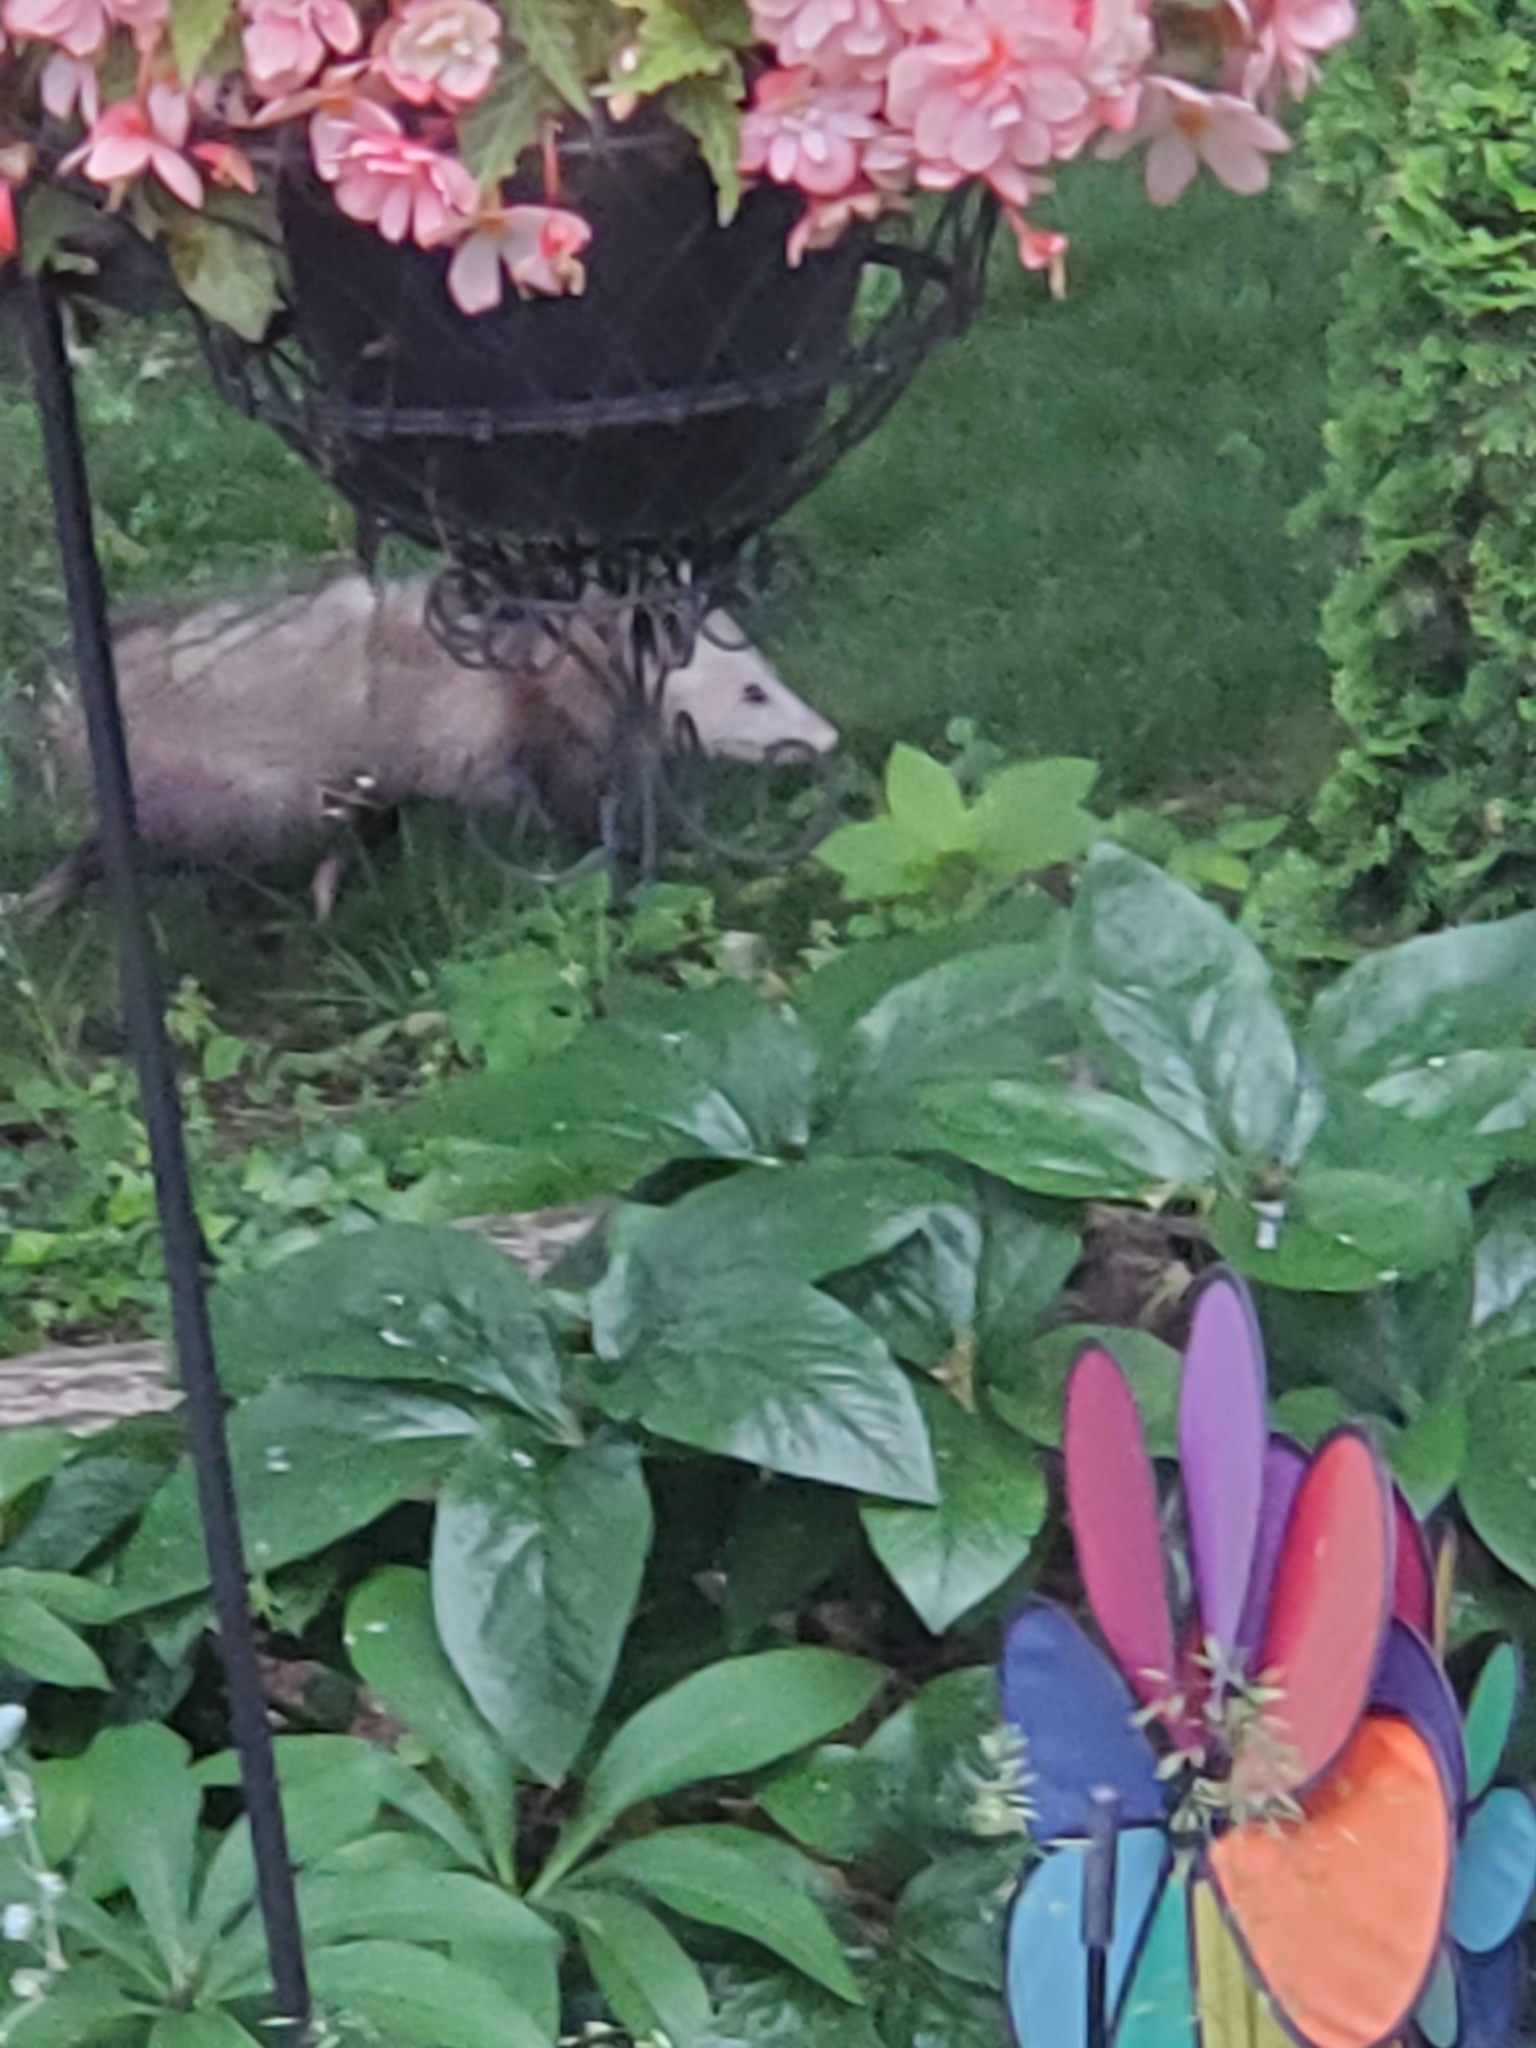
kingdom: Animalia
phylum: Chordata
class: Mammalia
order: Didelphimorphia
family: Didelphidae
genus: Didelphis
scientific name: Didelphis virginiana
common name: Virginia opossum
